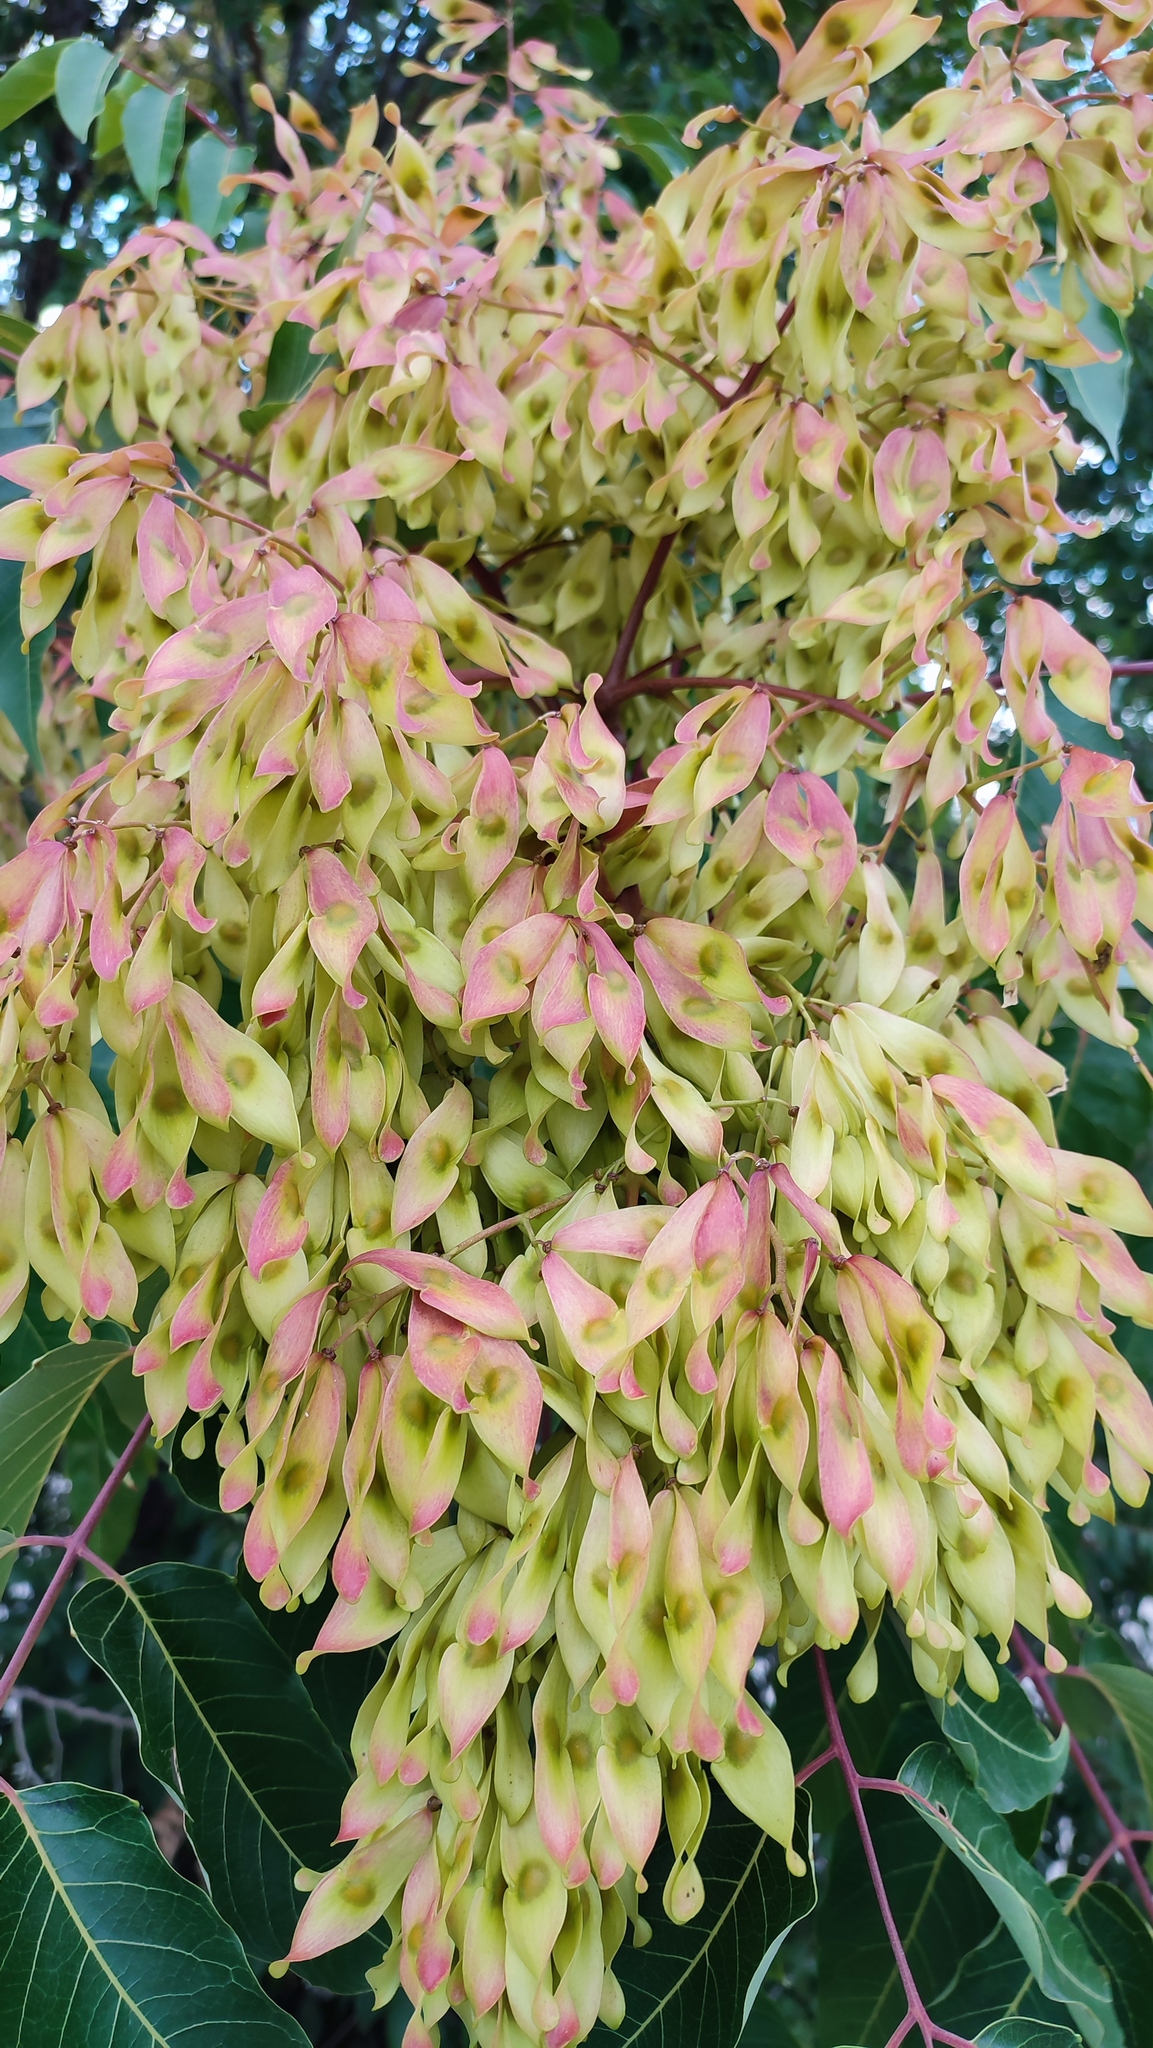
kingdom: Plantae
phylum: Tracheophyta
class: Magnoliopsida
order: Sapindales
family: Simaroubaceae
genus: Ailanthus
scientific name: Ailanthus altissima
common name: Tree-of-heaven
